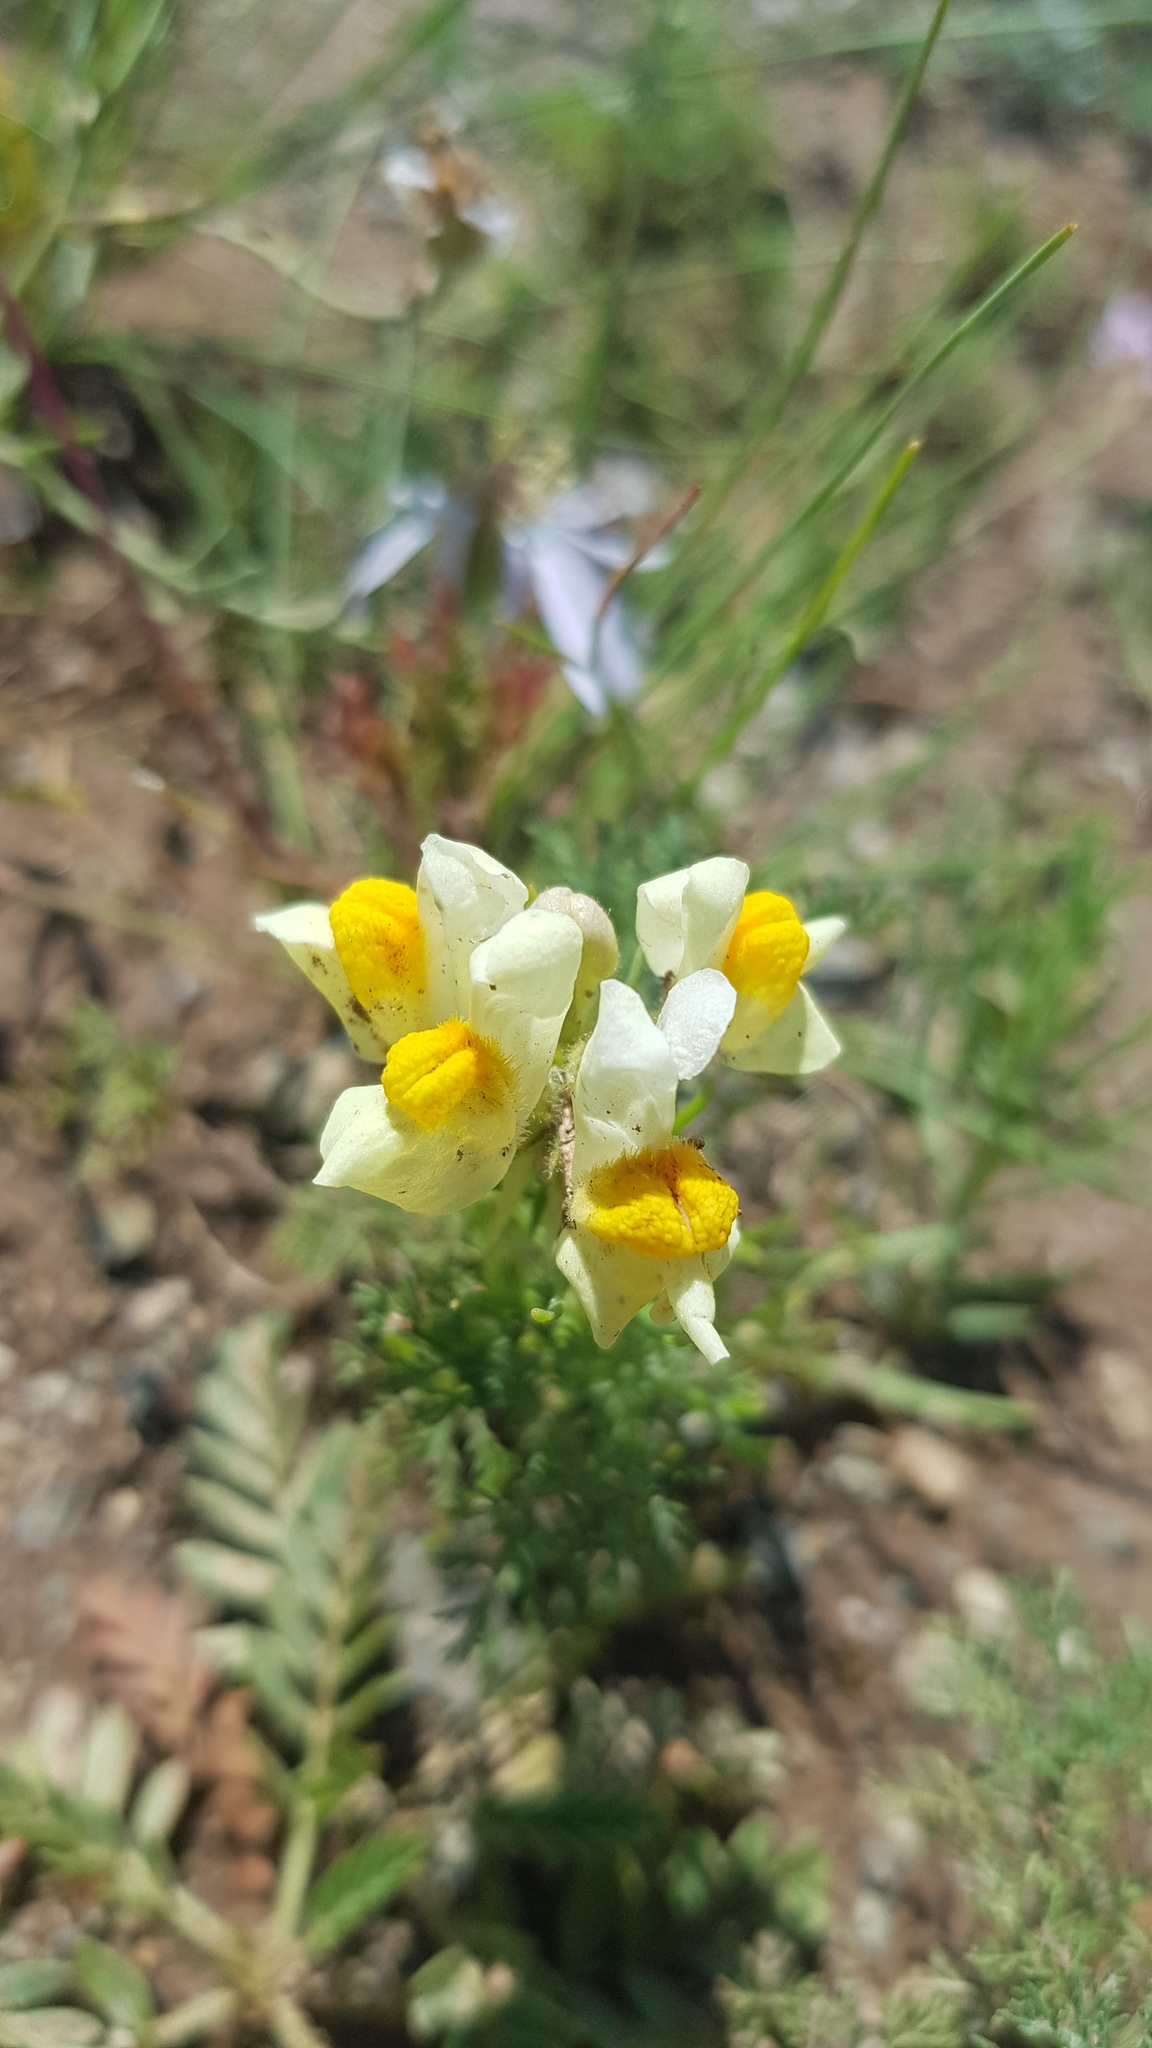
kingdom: Plantae
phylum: Tracheophyta
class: Magnoliopsida
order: Lamiales
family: Plantaginaceae
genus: Linaria
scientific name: Linaria acutiloba
